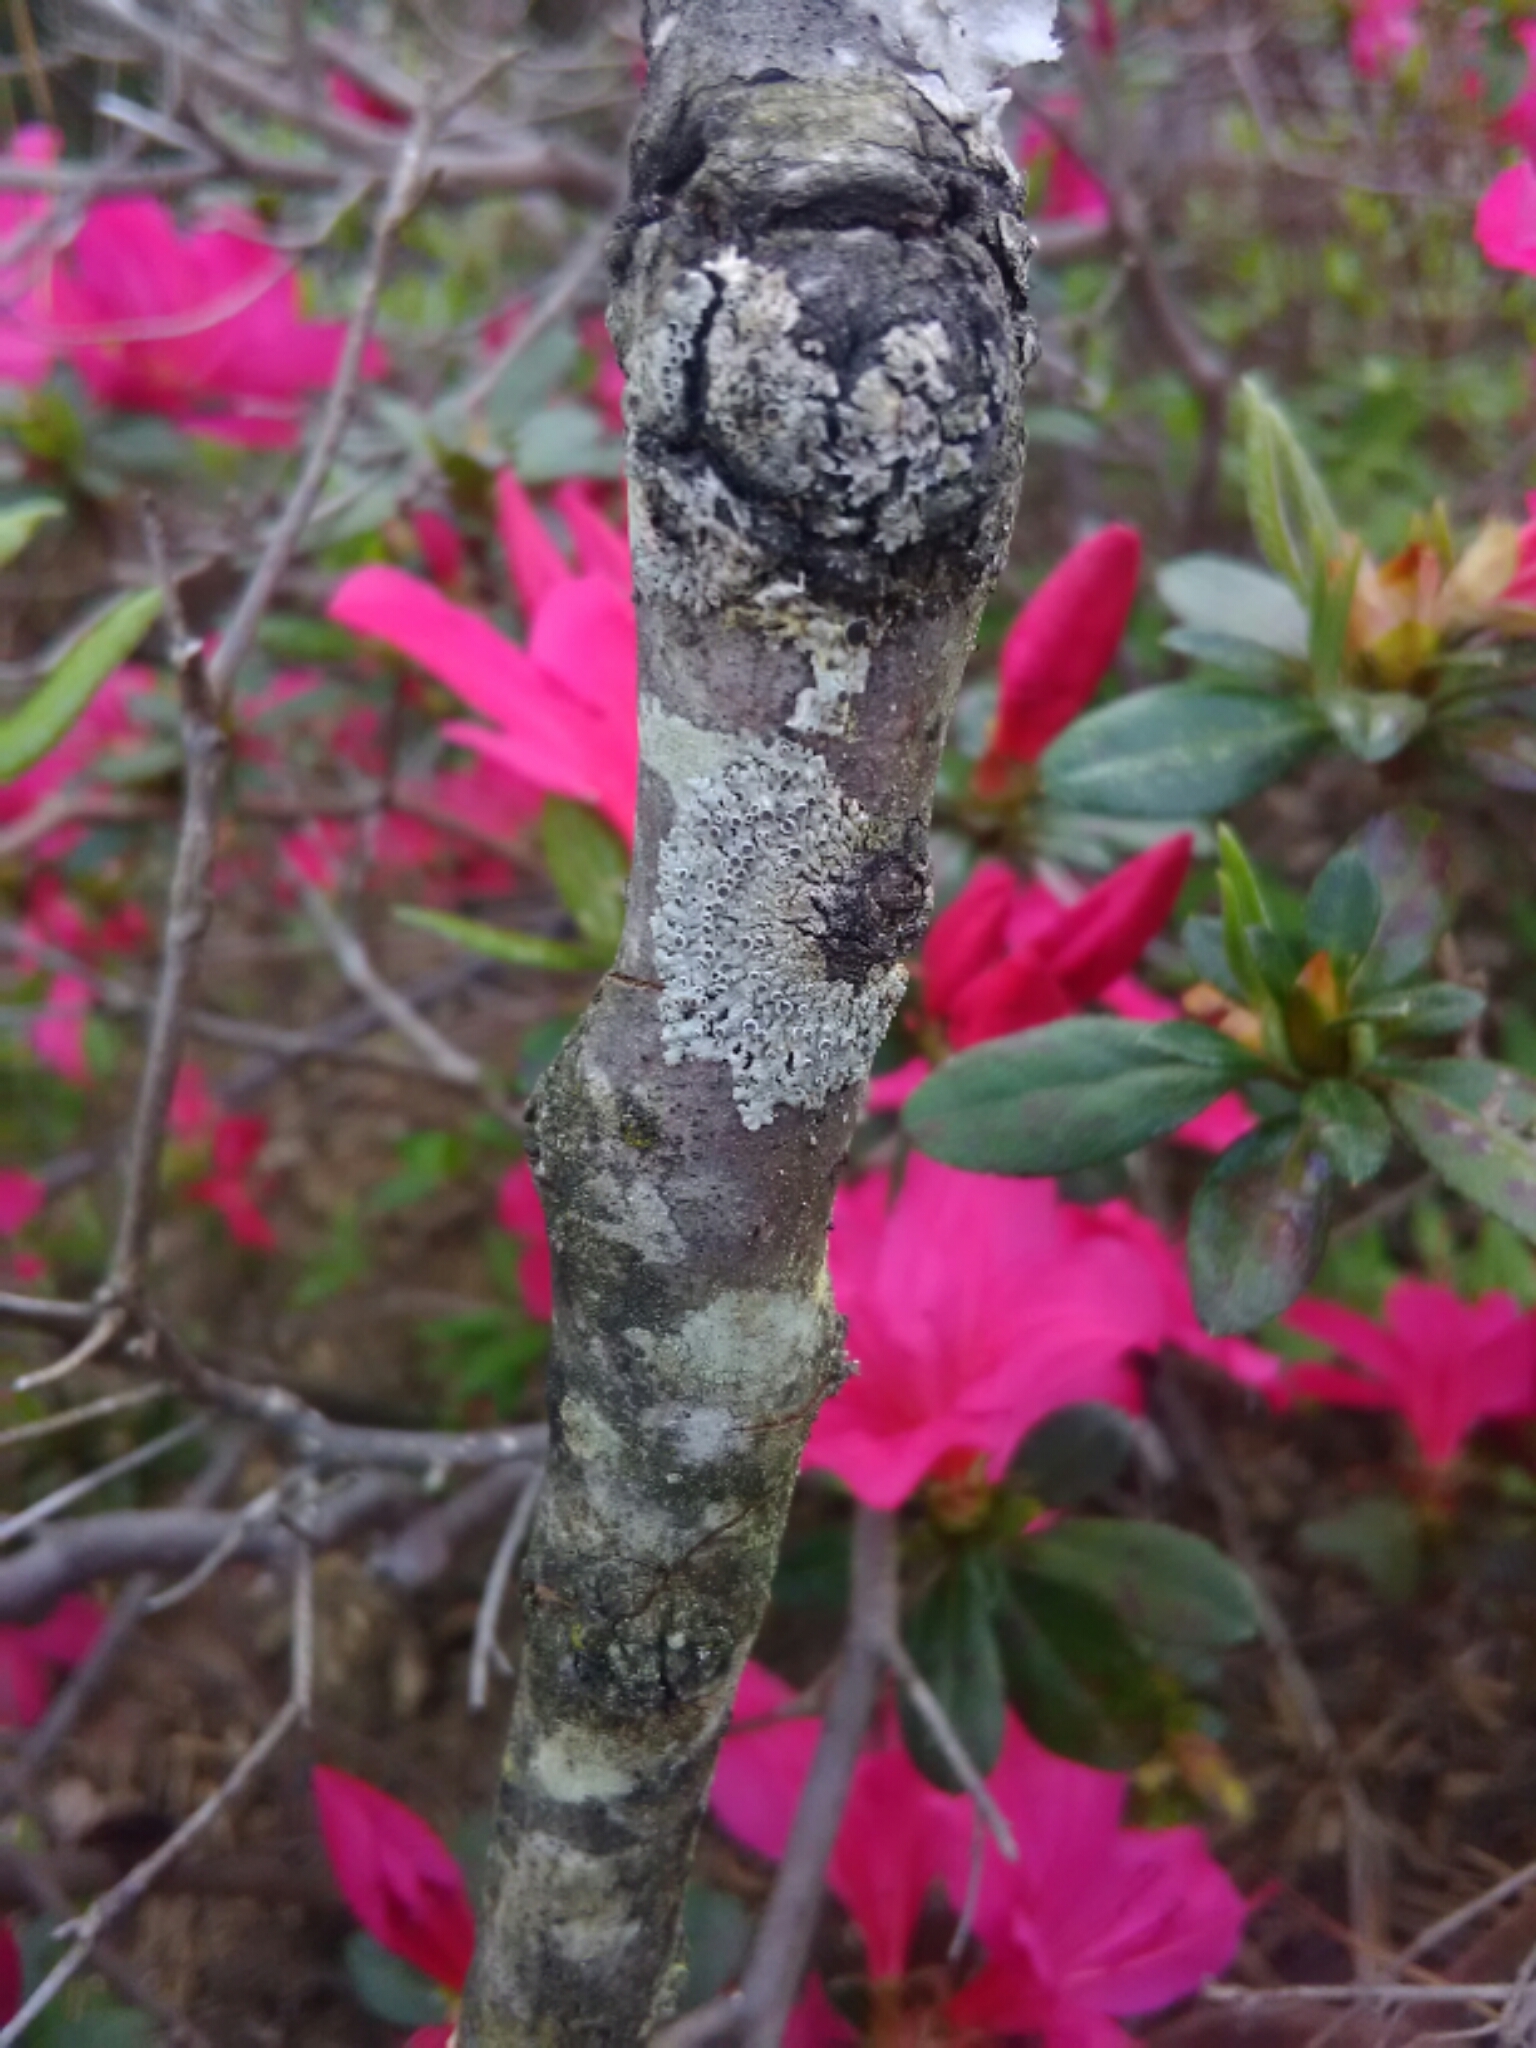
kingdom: Fungi
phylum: Ascomycota
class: Lecanoromycetes
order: Caliciales
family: Physciaceae
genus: Physcia
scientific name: Physcia stellaris
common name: Star rosette lichen
